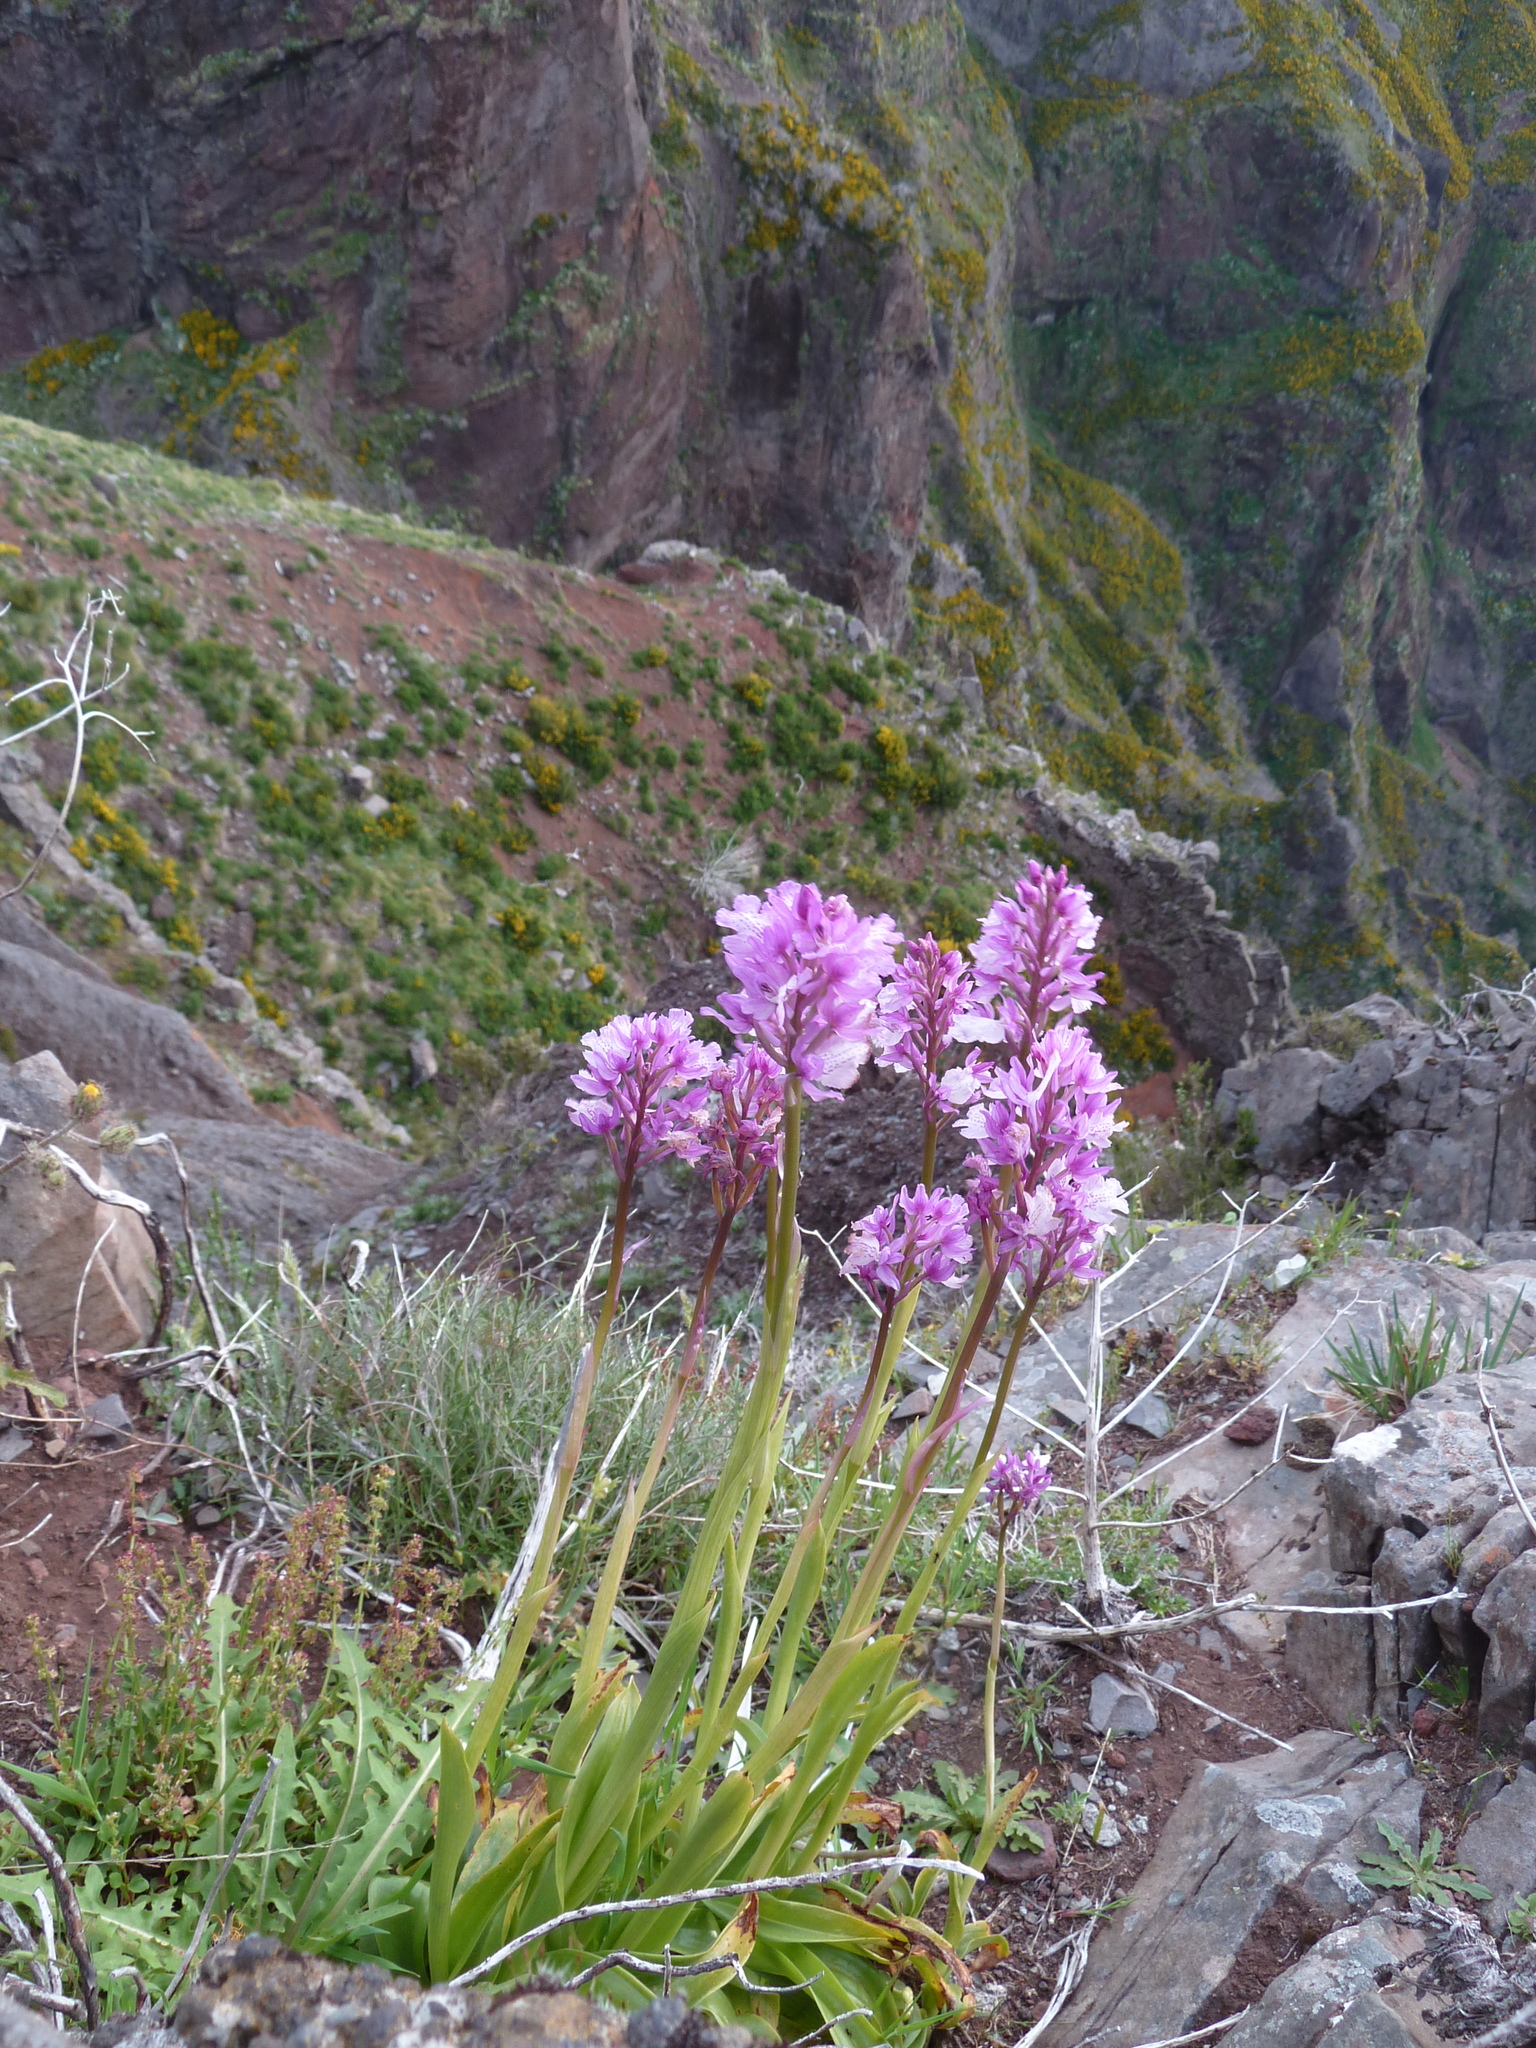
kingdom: Plantae
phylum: Tracheophyta
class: Liliopsida
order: Asparagales
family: Orchidaceae
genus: Orchis
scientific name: Orchis mascula
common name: Early-purple orchid
